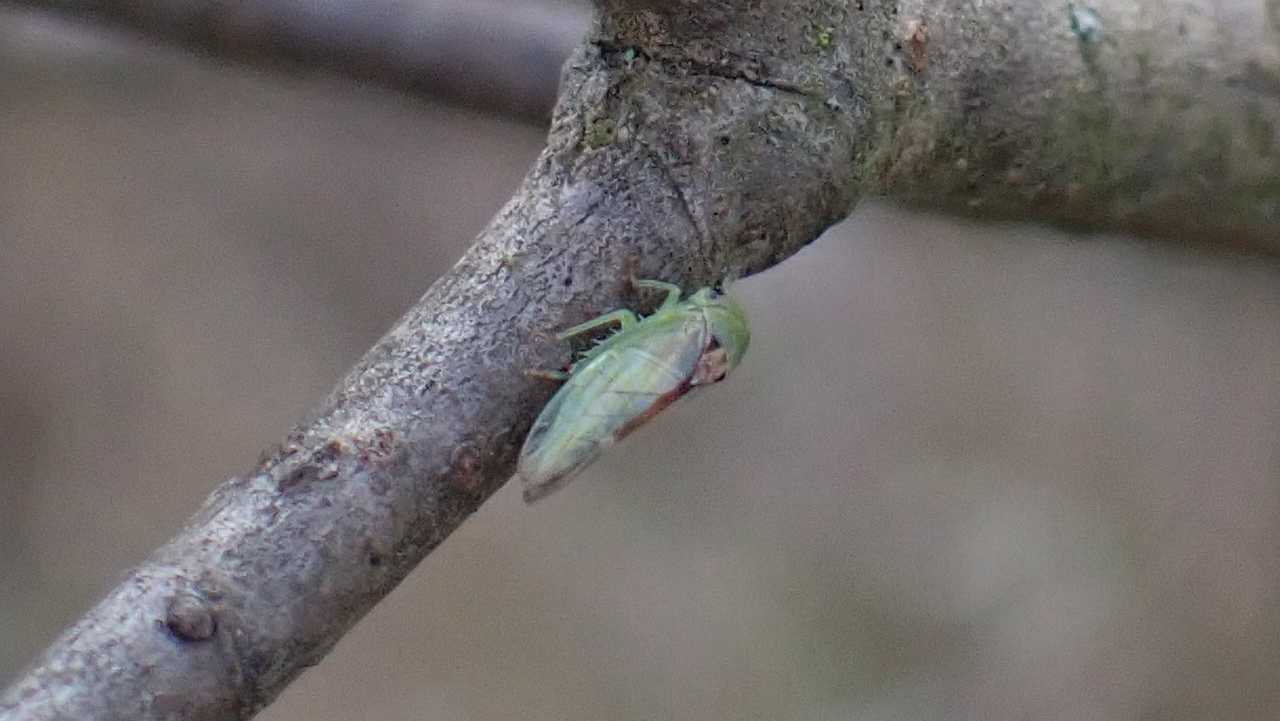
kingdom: Animalia
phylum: Arthropoda
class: Insecta
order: Hemiptera
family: Cicadellidae
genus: Viridicerus
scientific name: Viridicerus ustulatus
